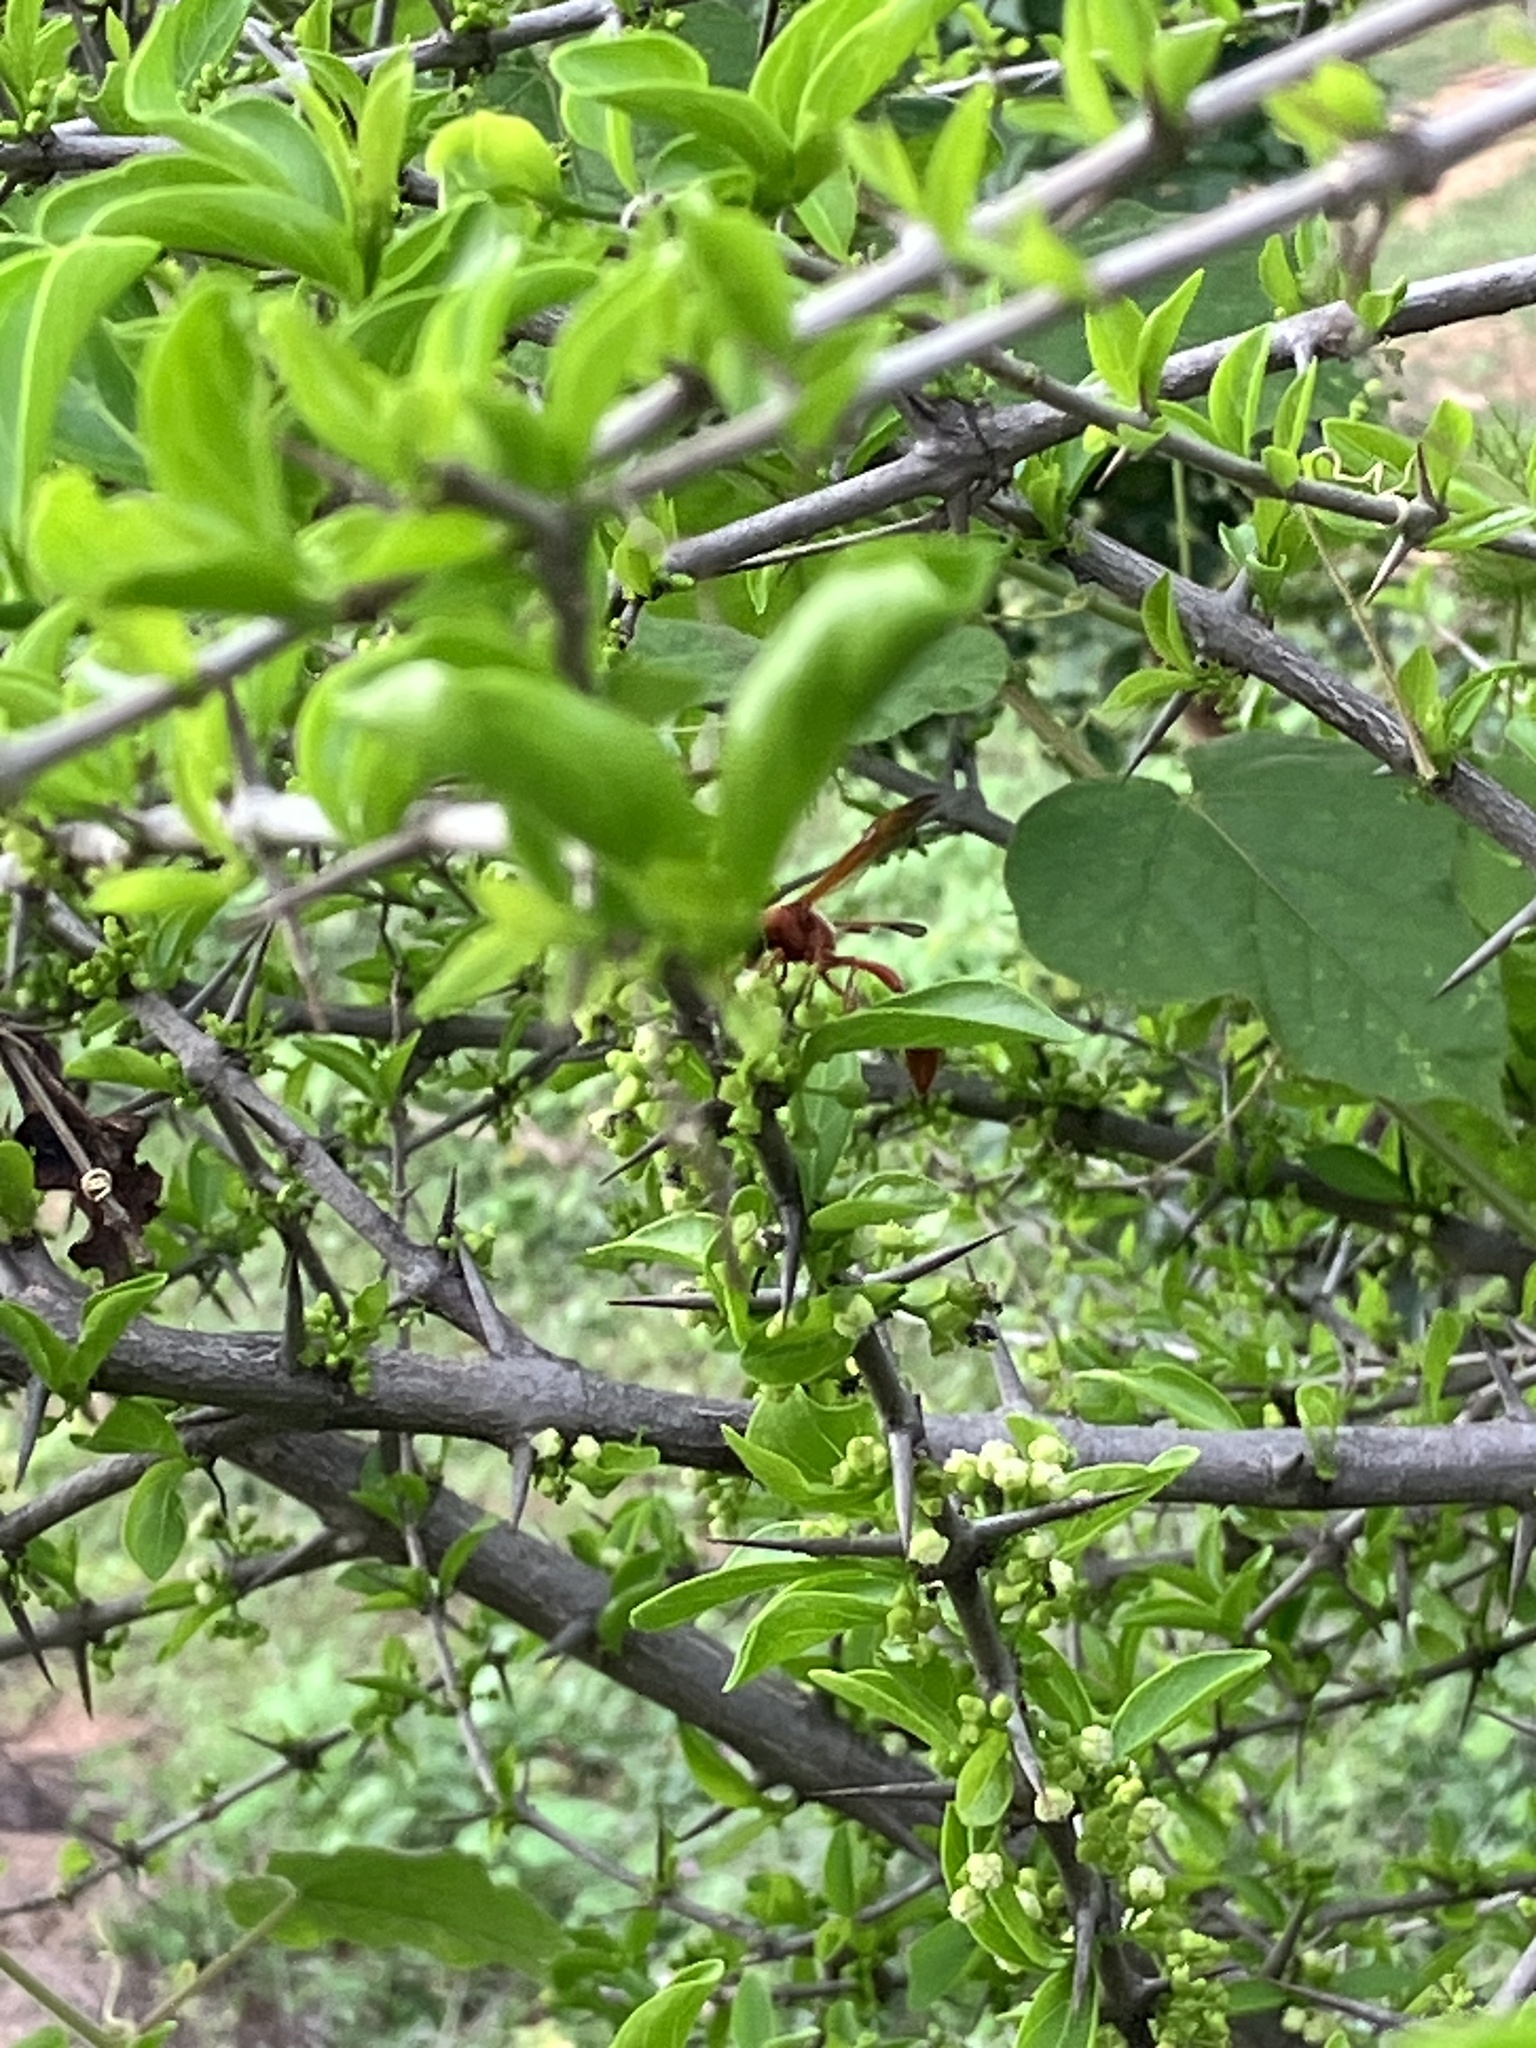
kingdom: Animalia
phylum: Arthropoda
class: Insecta
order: Hymenoptera
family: Eumenidae
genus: Delta
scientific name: Delta conoideum
